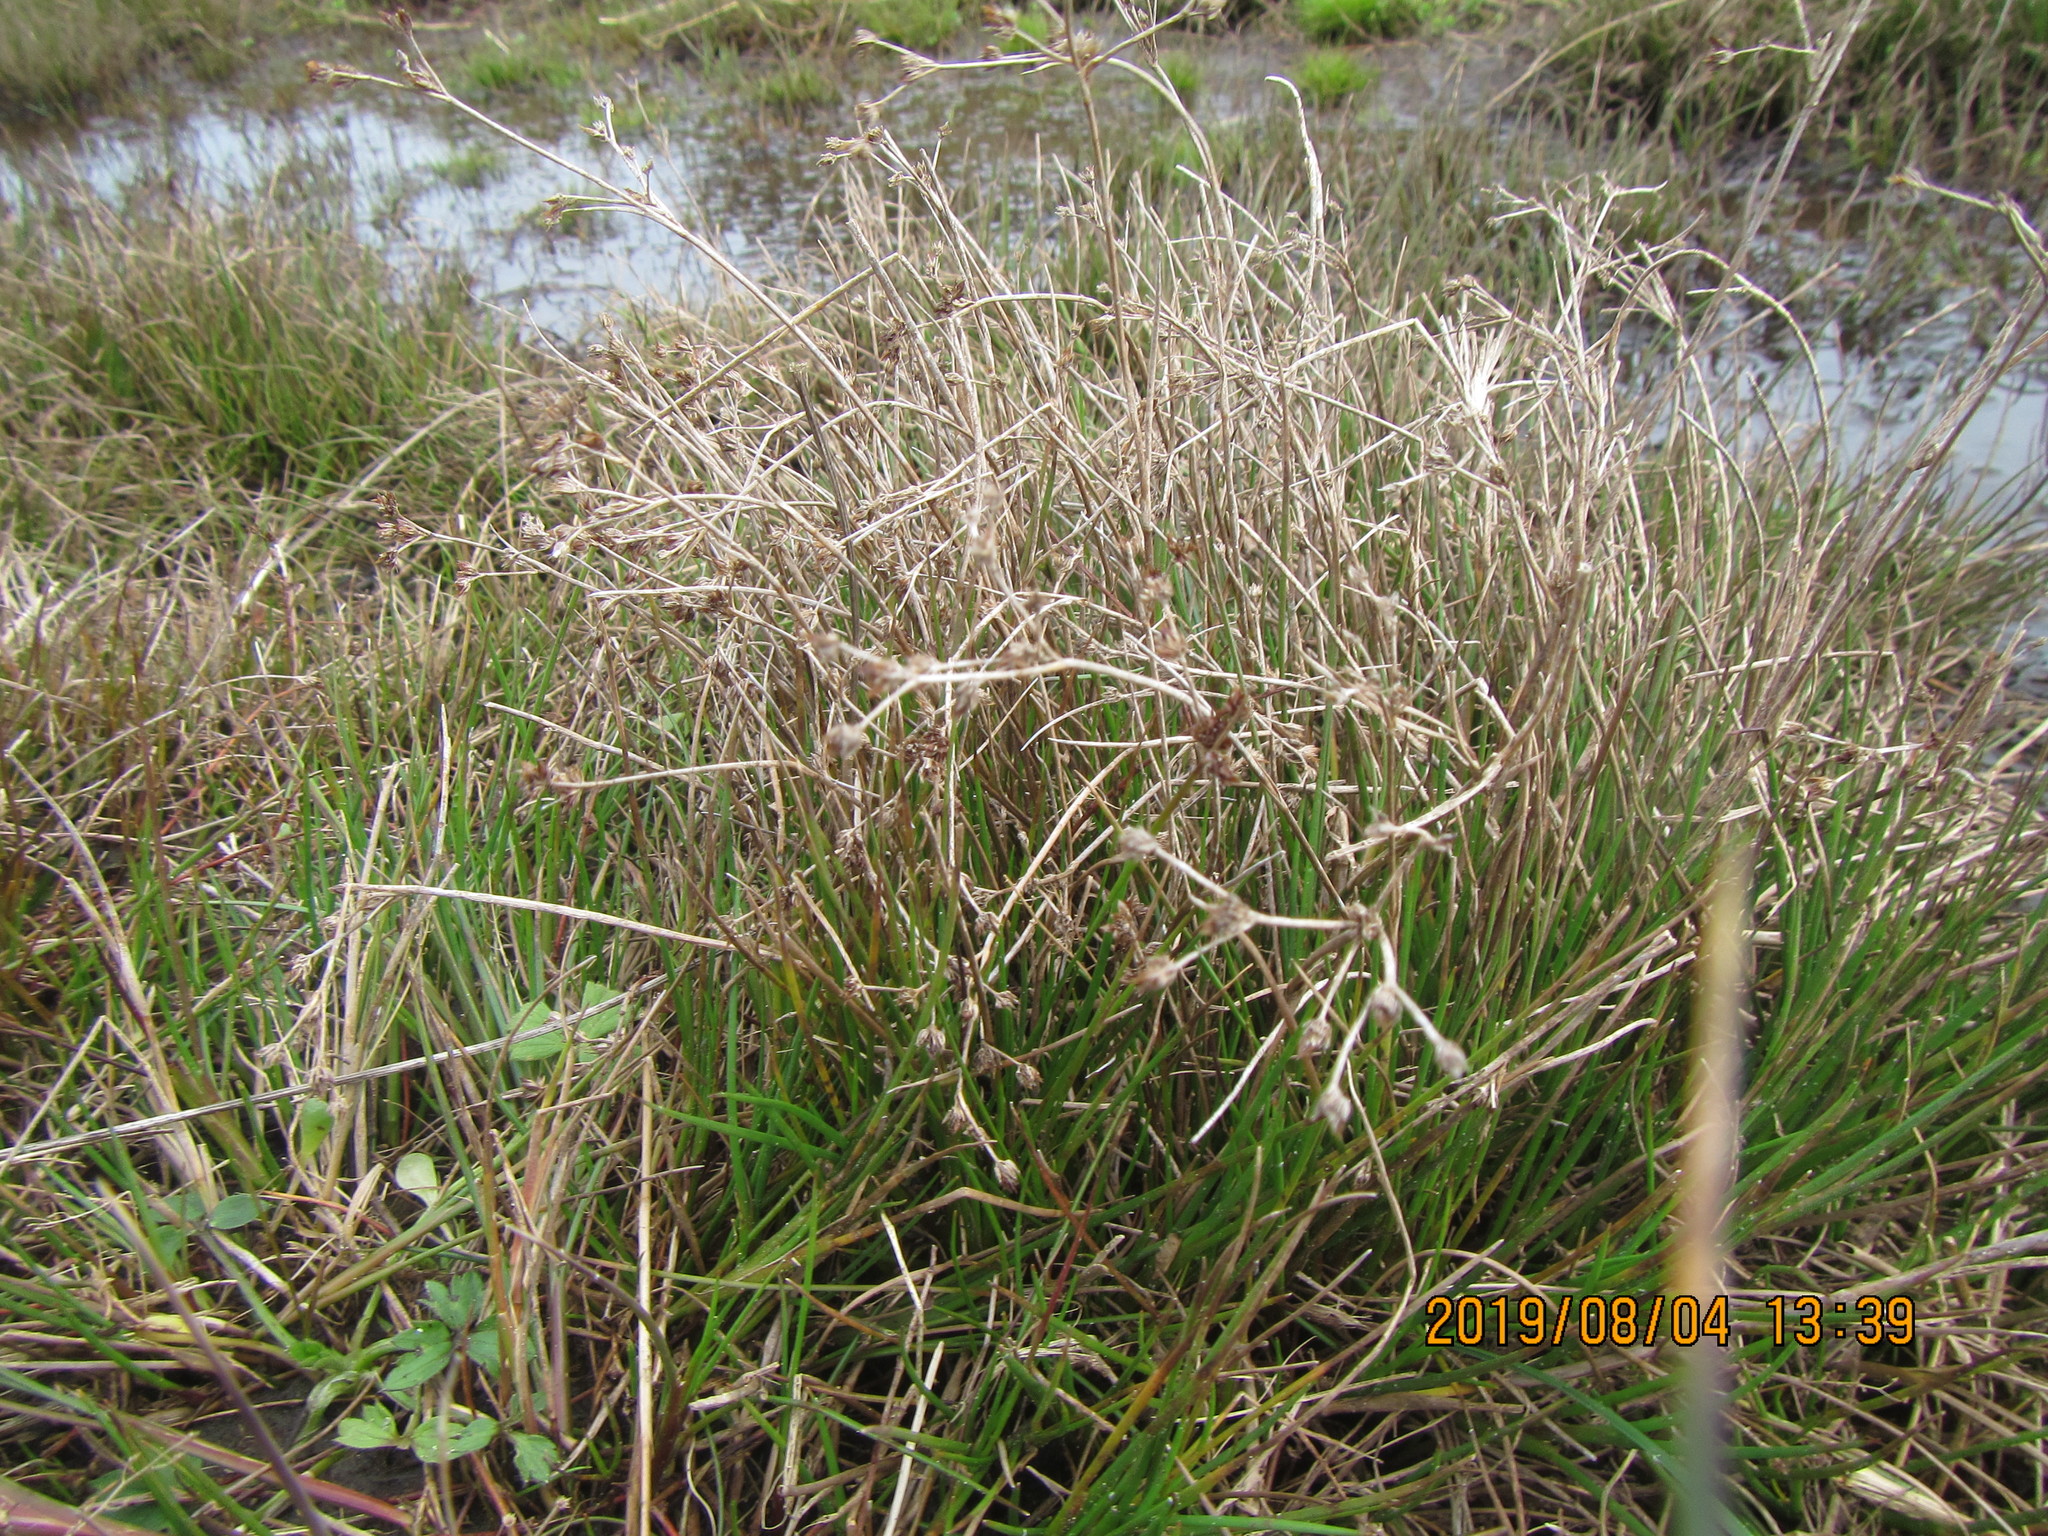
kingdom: Plantae
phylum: Tracheophyta
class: Liliopsida
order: Poales
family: Juncaceae
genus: Juncus
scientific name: Juncus articulatus
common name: Jointed rush
